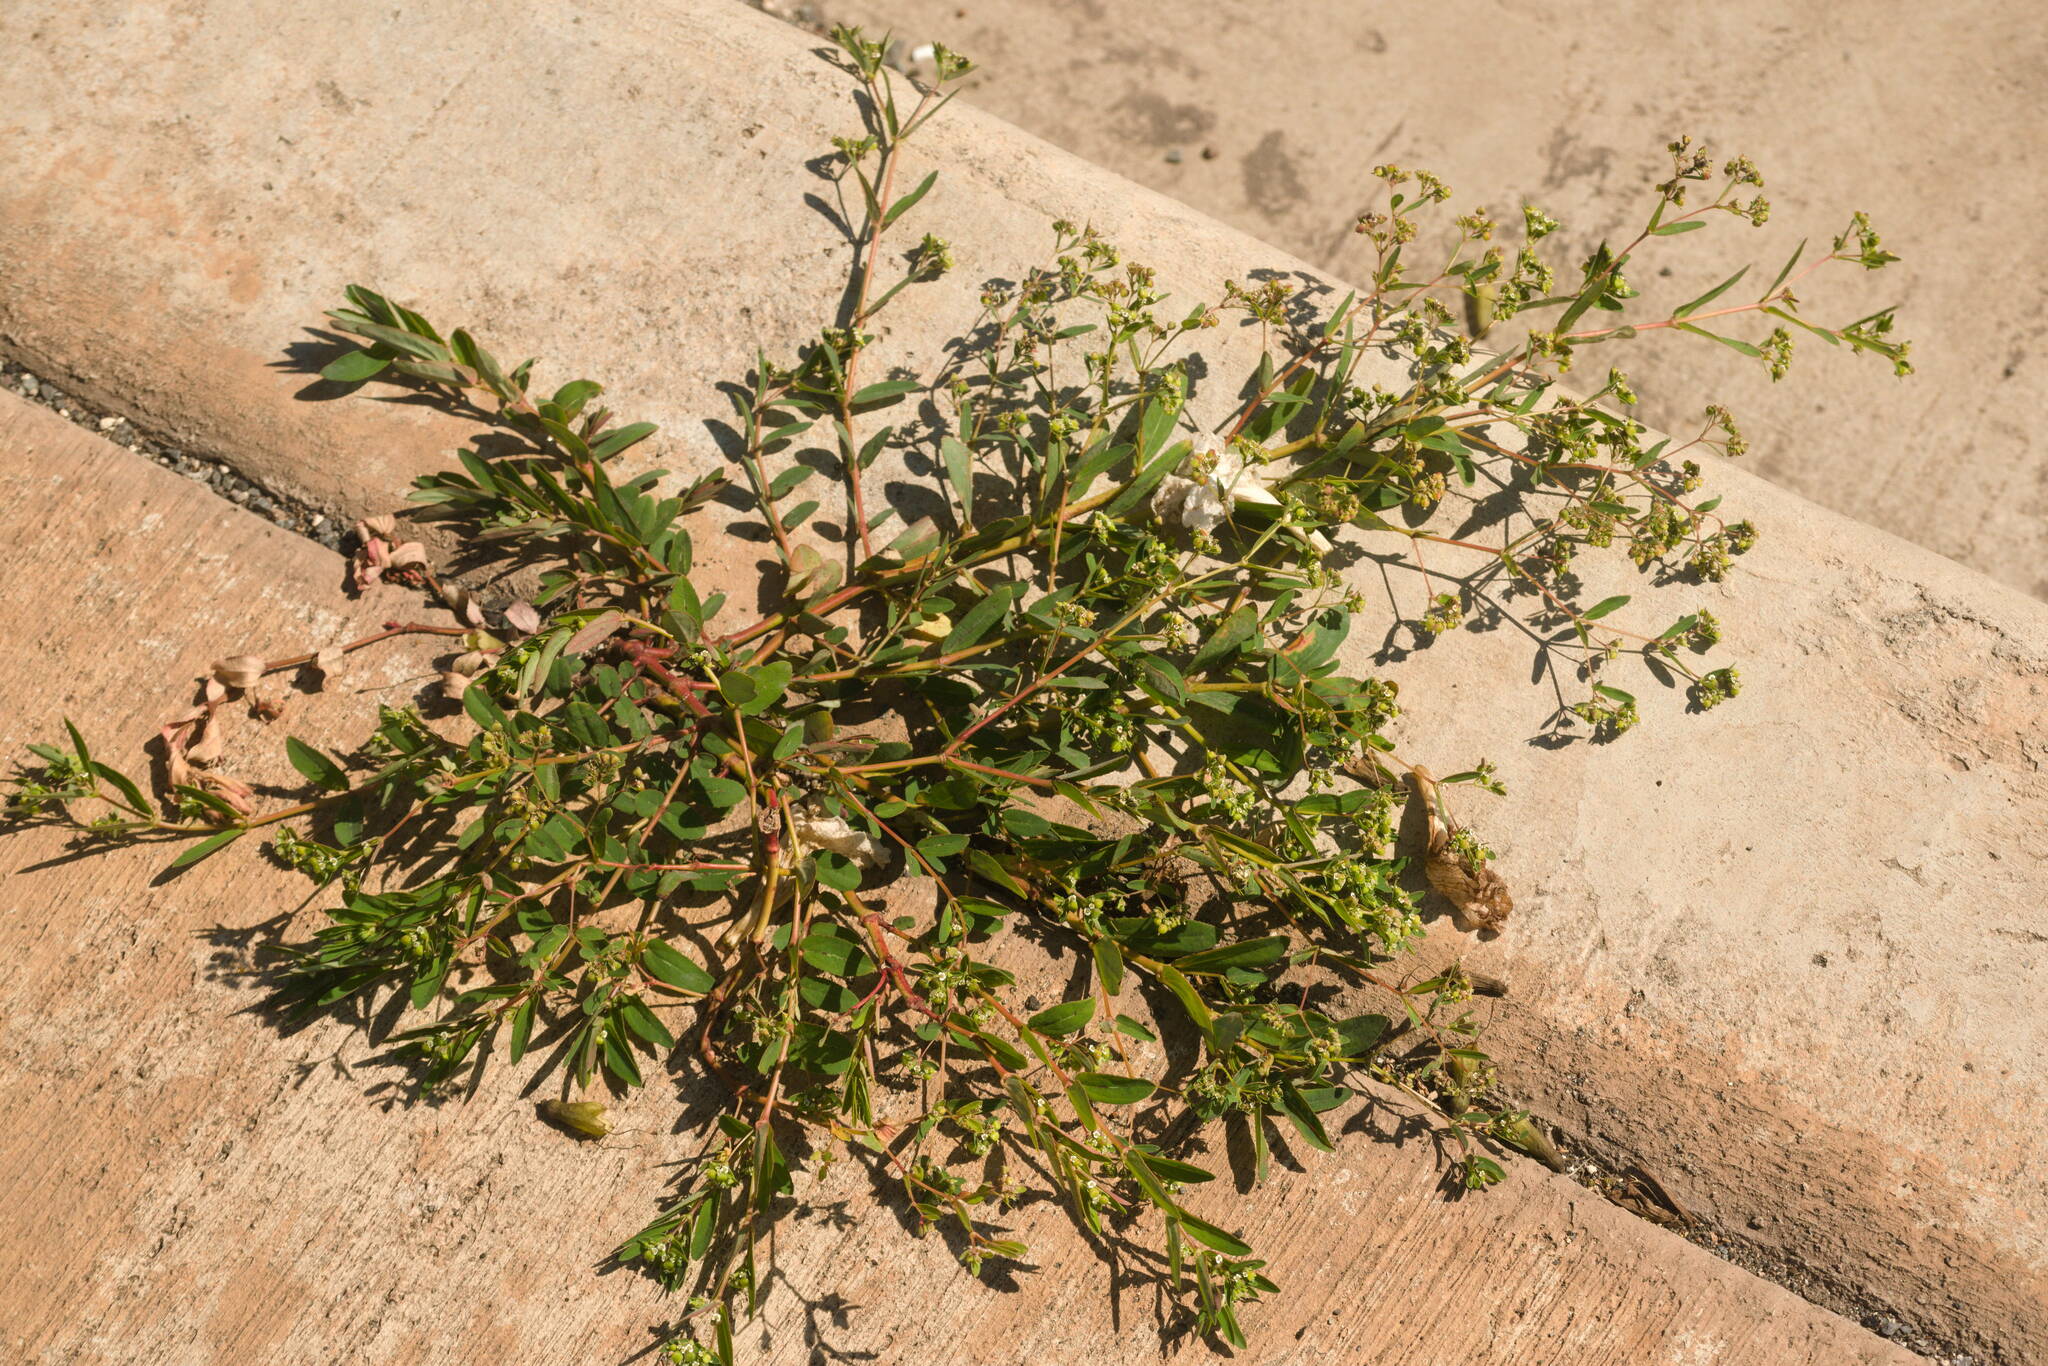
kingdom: Plantae
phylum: Tracheophyta
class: Magnoliopsida
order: Malpighiales
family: Euphorbiaceae
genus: Euphorbia
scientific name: Euphorbia hyssopifolia
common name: Hyssopleaf sandmat
